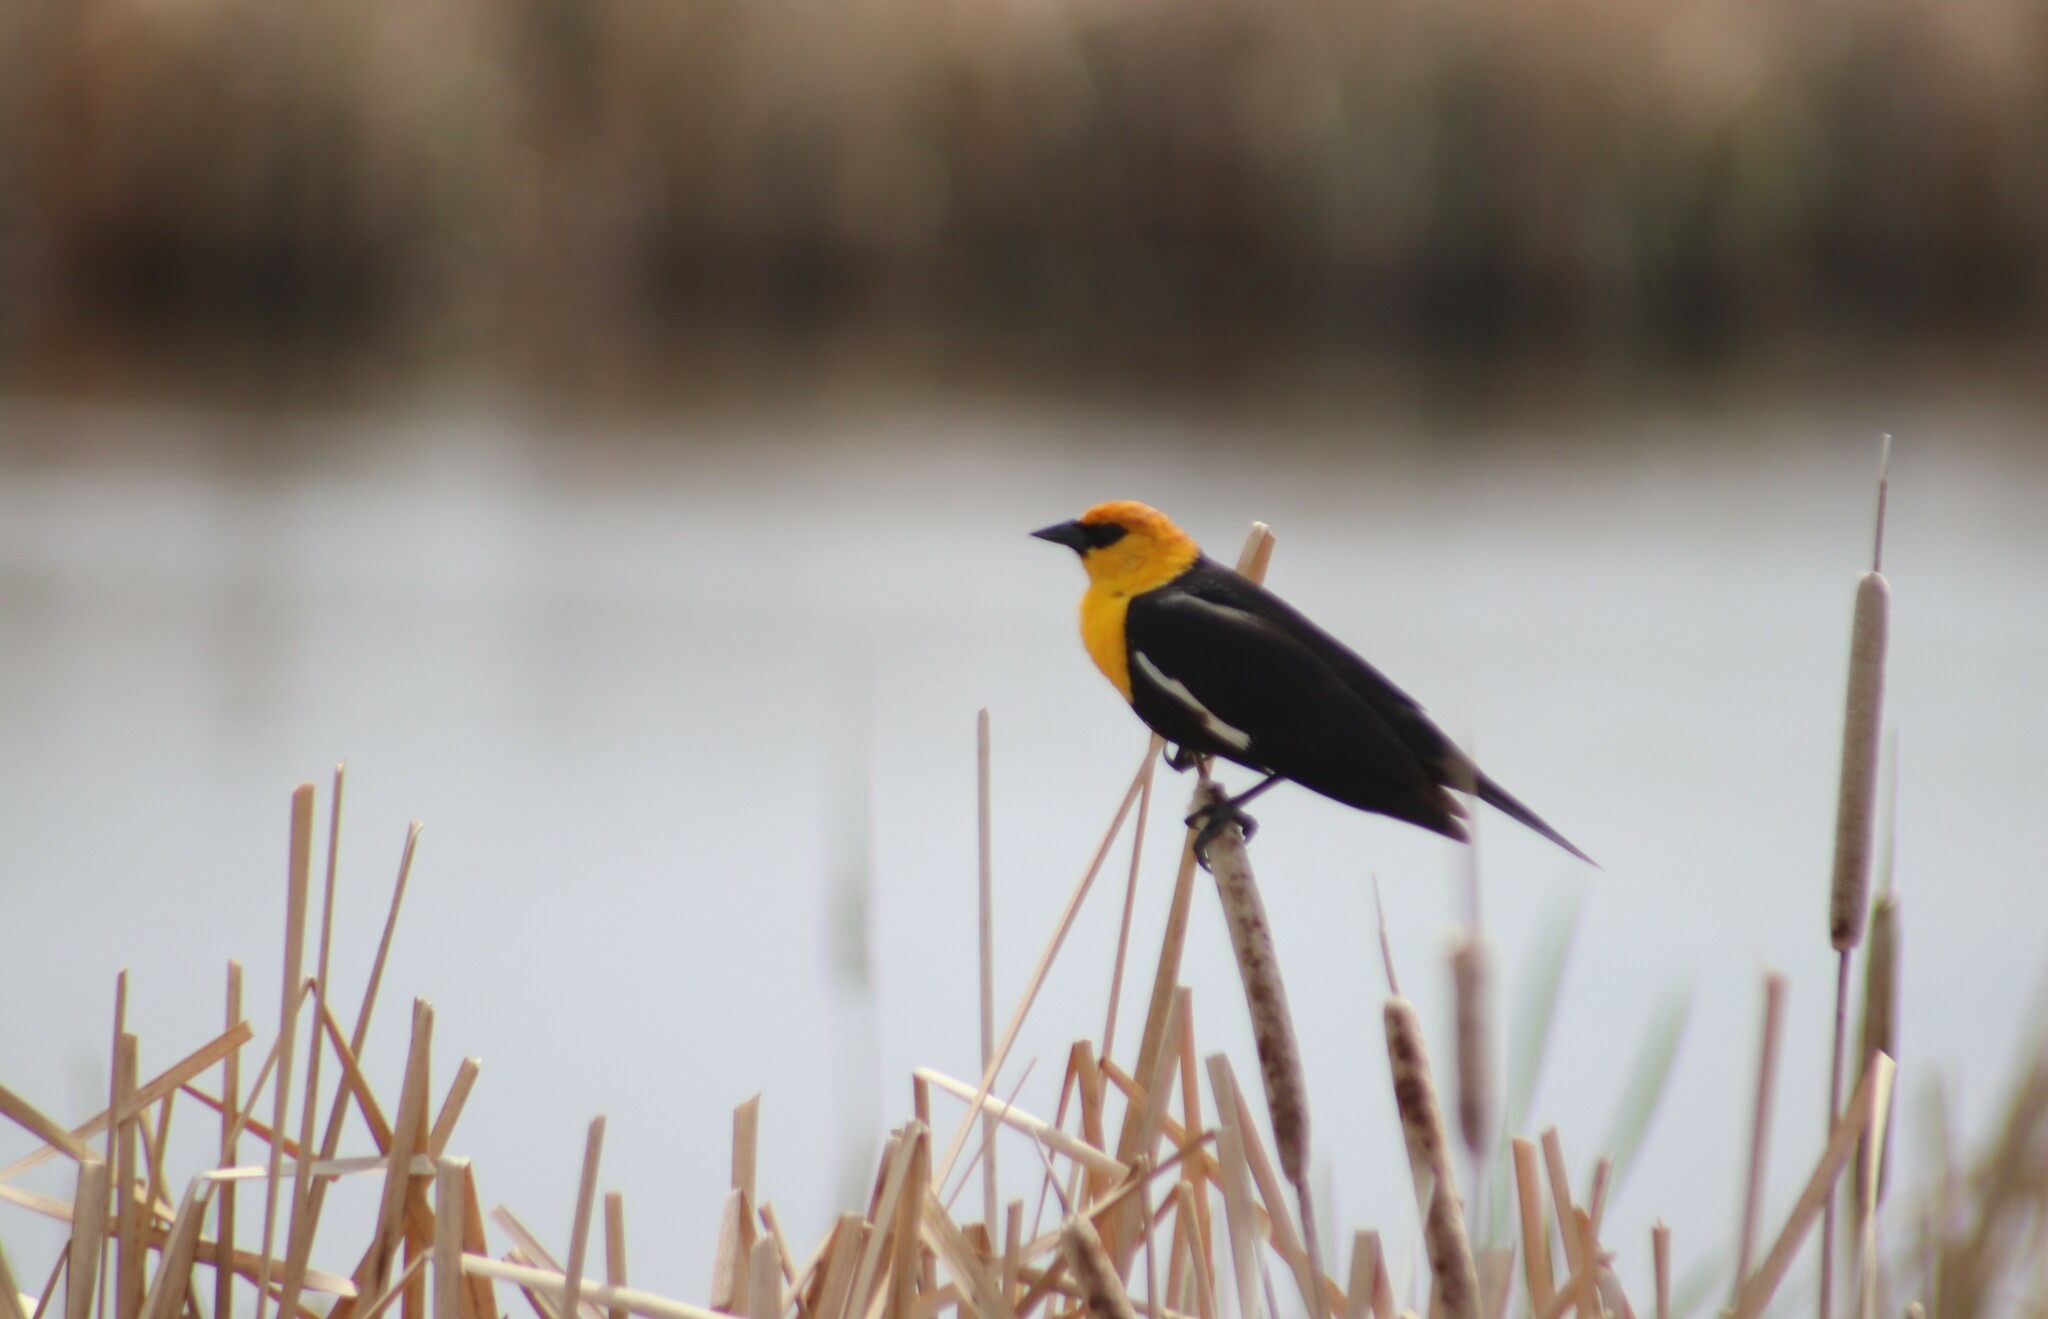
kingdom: Animalia
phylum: Chordata
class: Aves
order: Passeriformes
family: Icteridae
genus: Xanthocephalus
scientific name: Xanthocephalus xanthocephalus
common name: Yellow-headed blackbird
